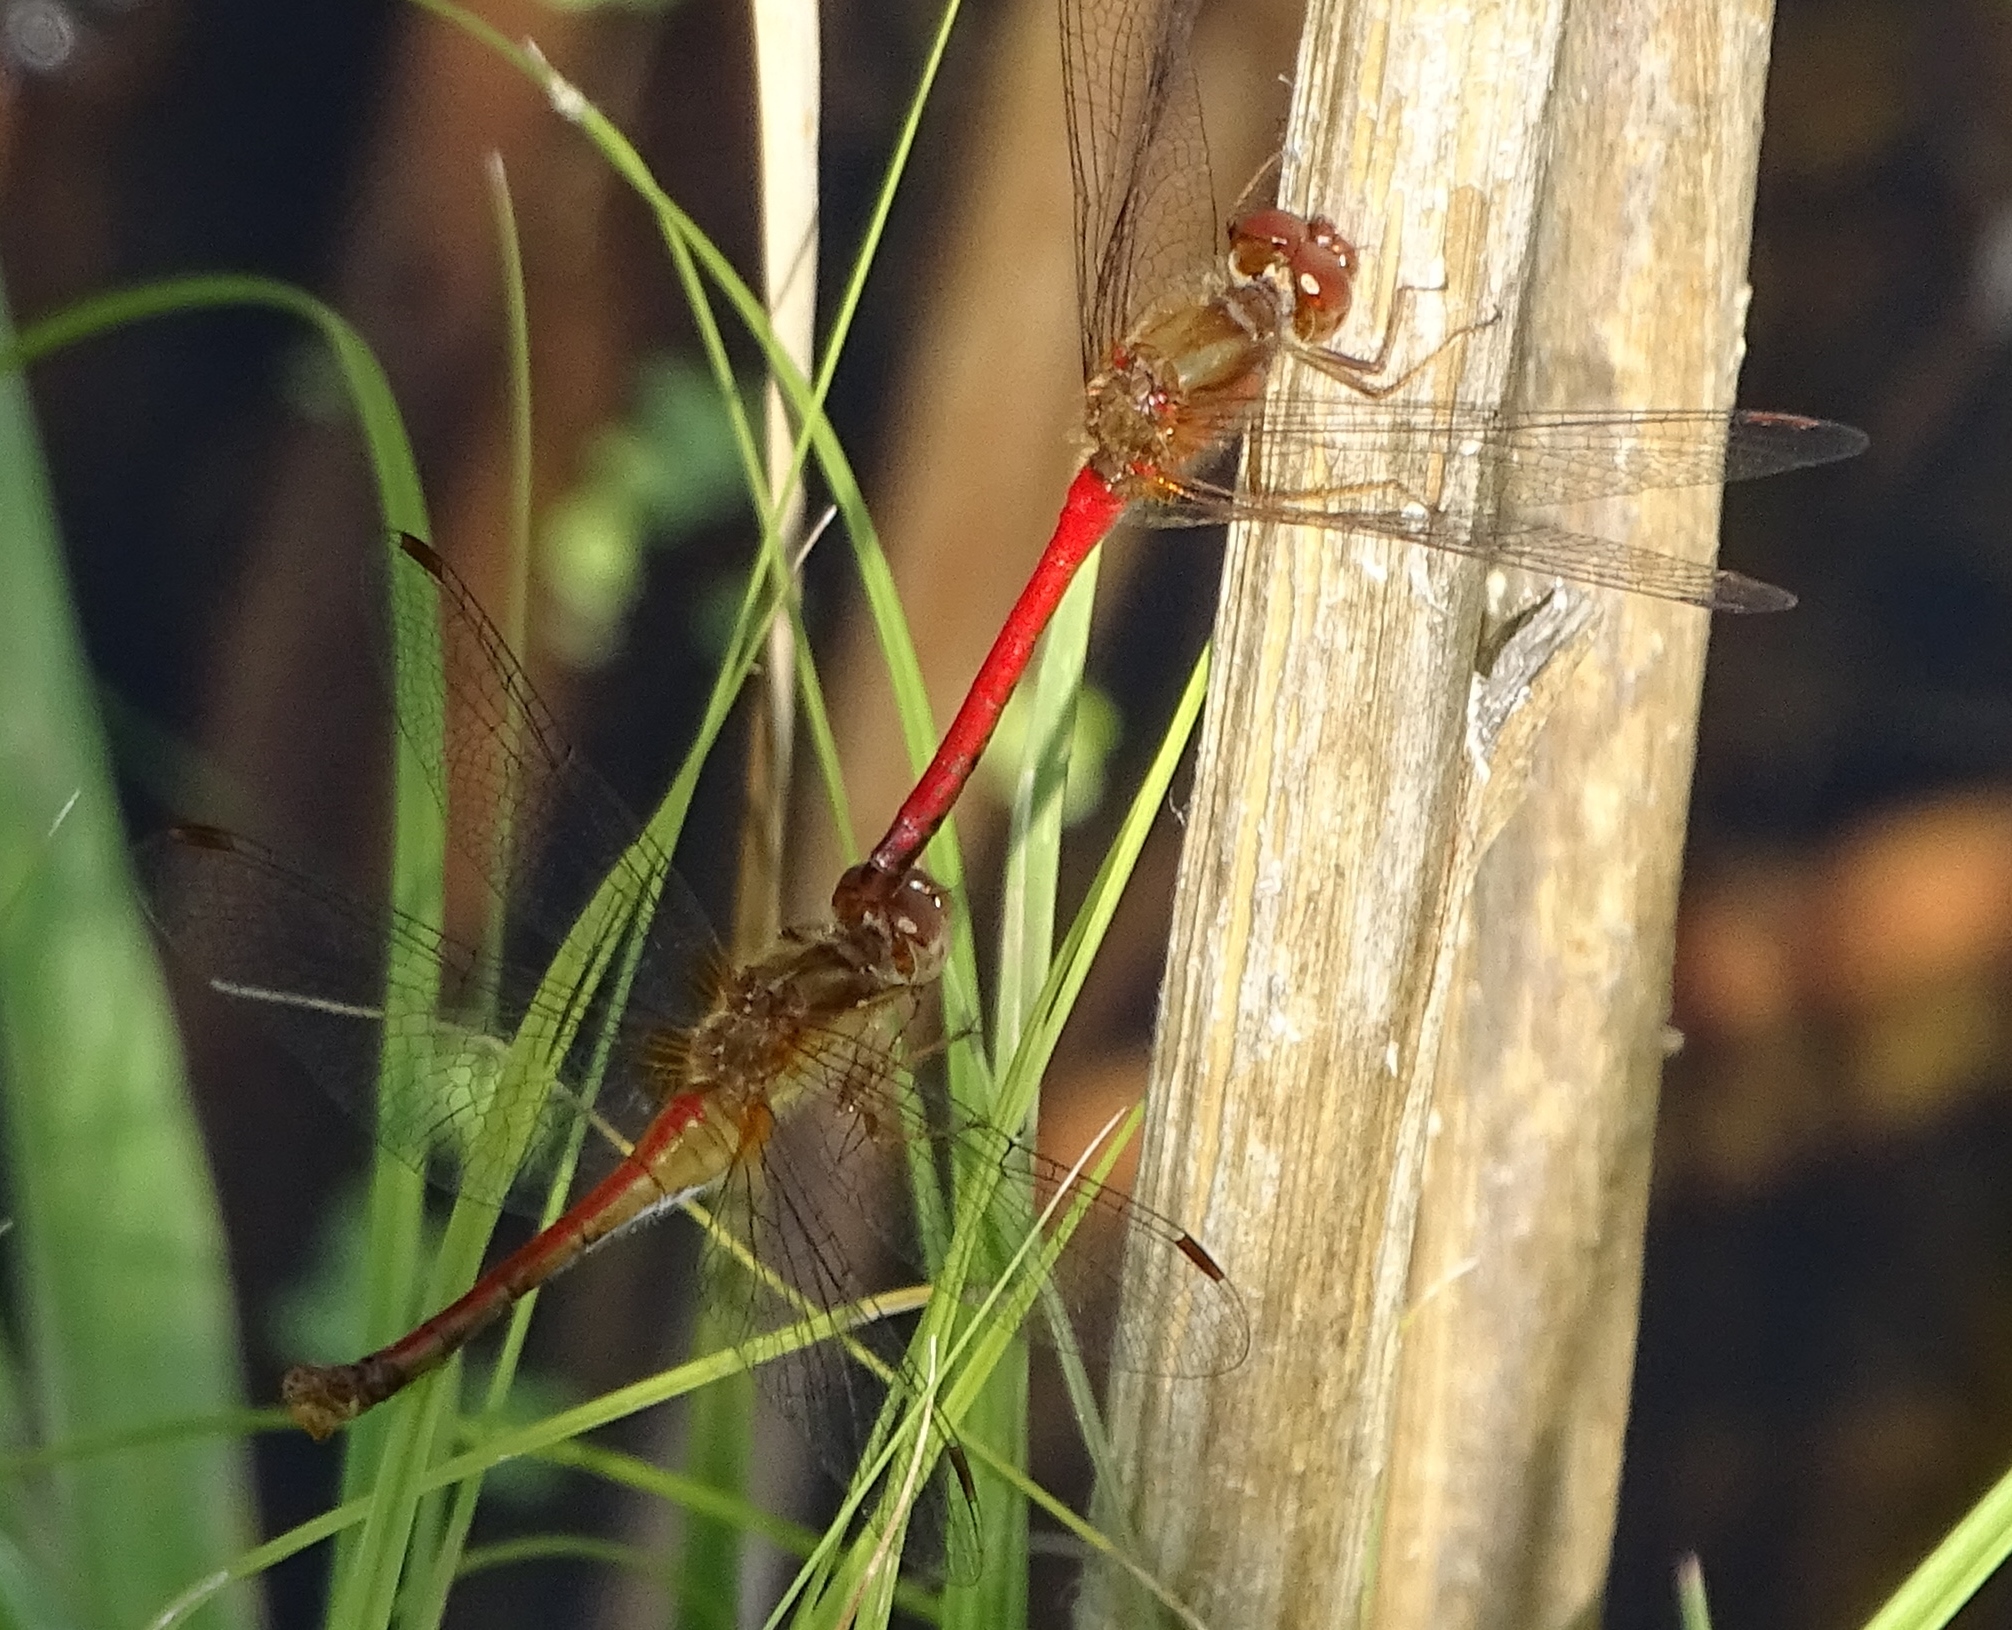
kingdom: Animalia
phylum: Arthropoda
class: Insecta
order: Odonata
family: Libellulidae
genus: Sympetrum
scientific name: Sympetrum vicinum
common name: Autumn meadowhawk
